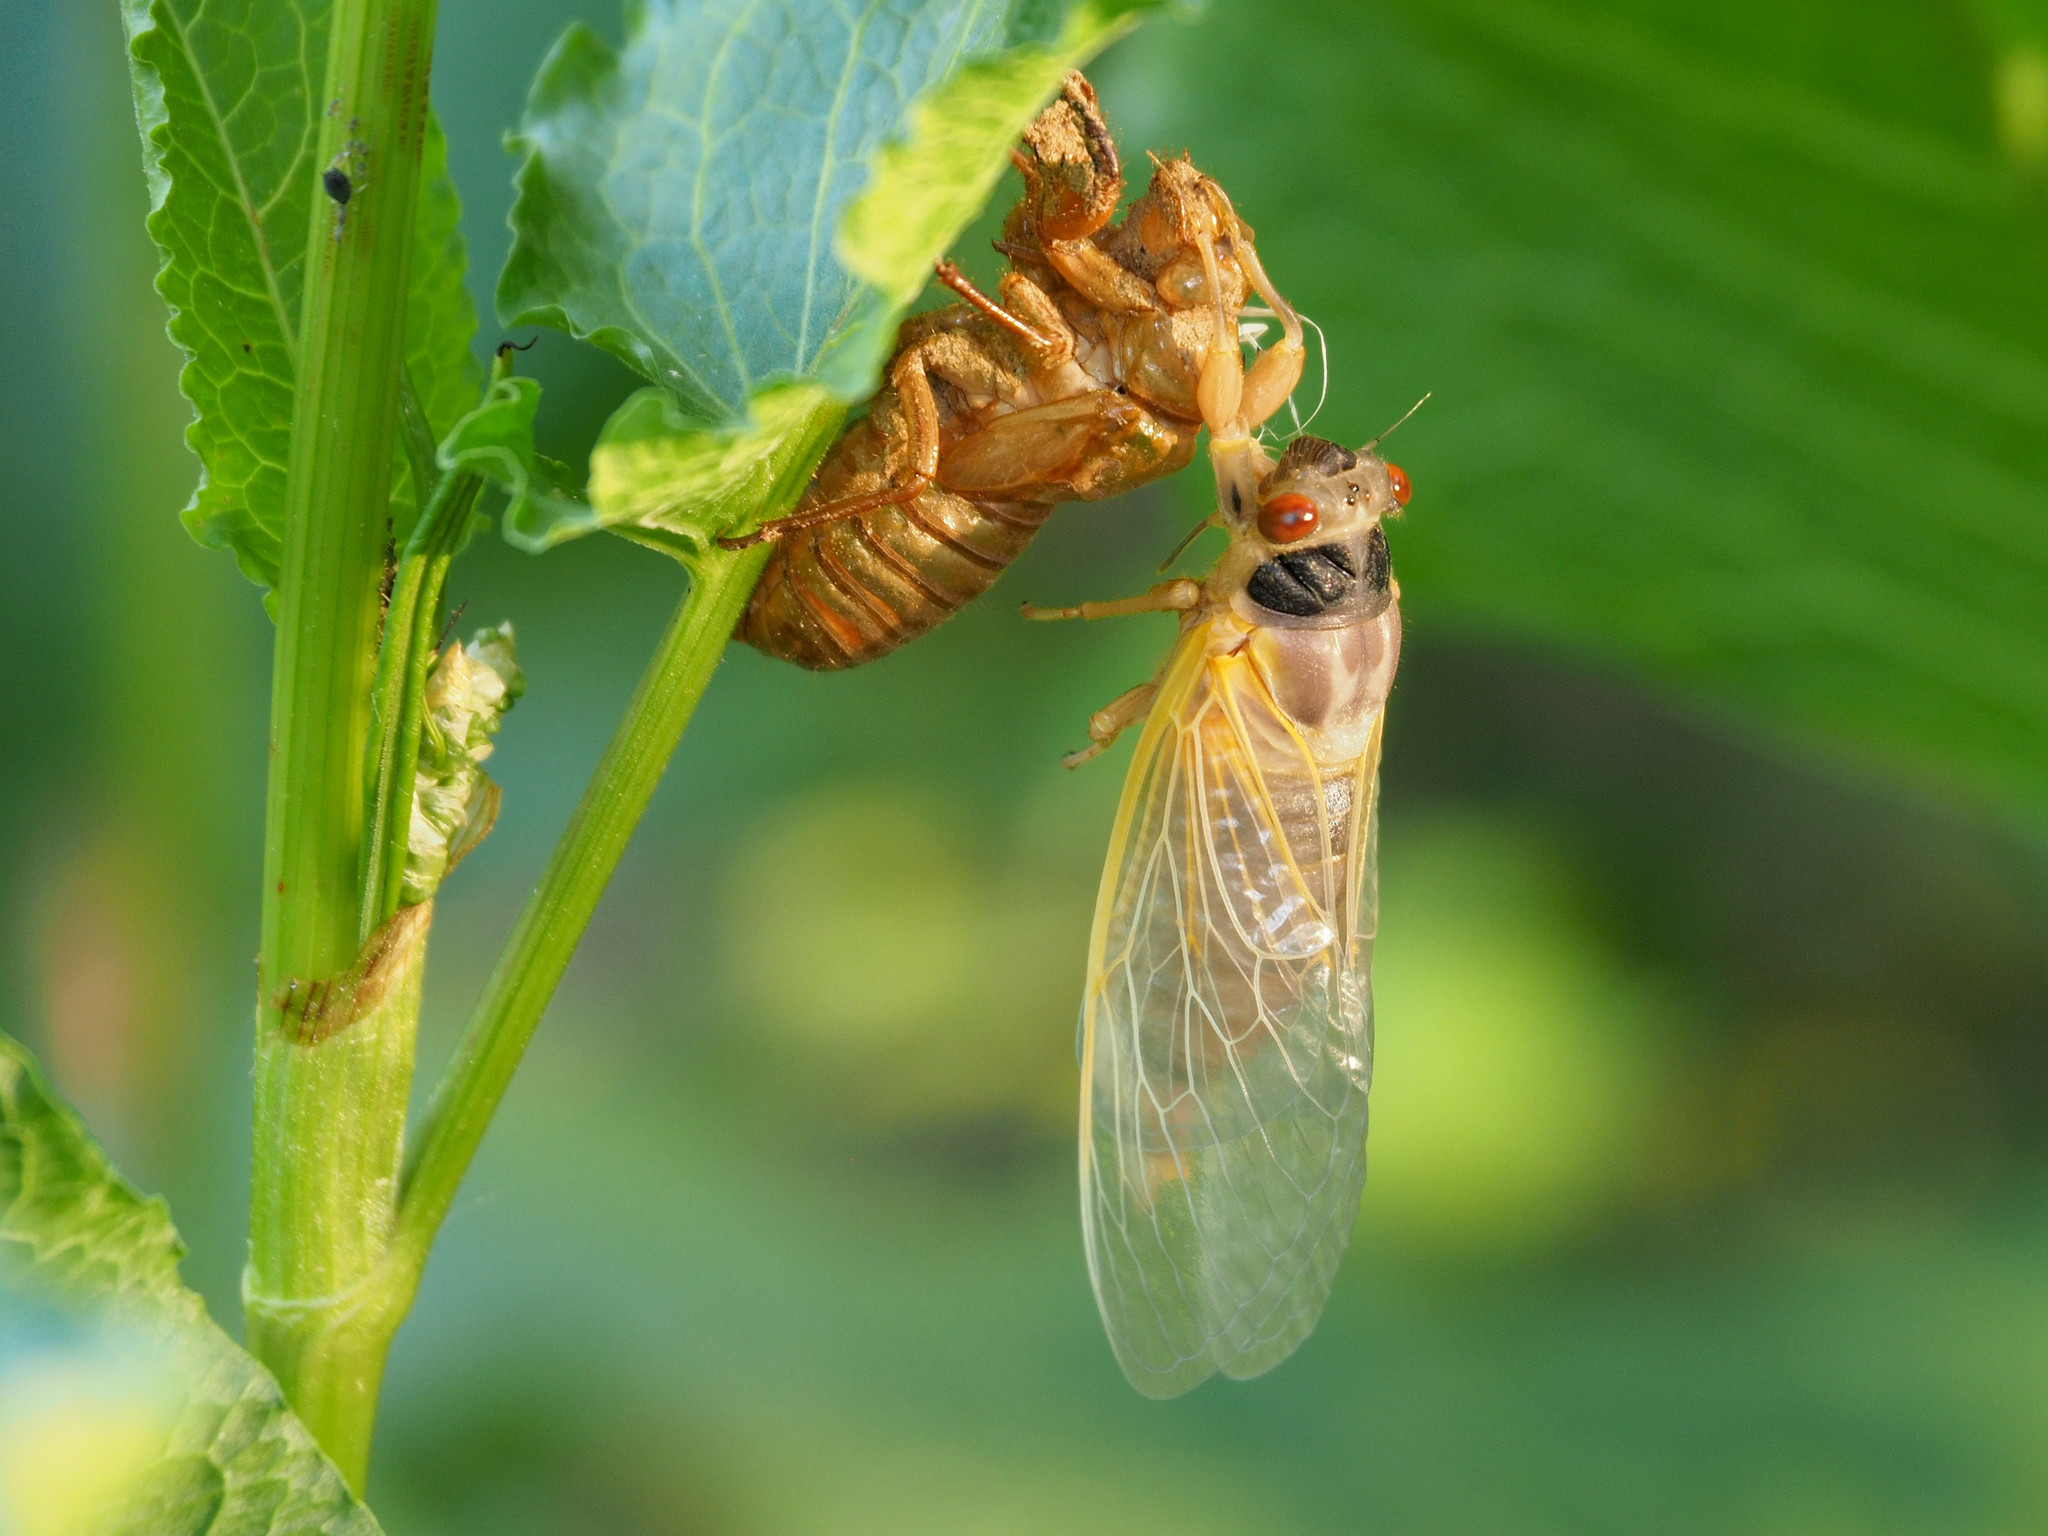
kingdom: Animalia
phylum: Arthropoda
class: Insecta
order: Hemiptera
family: Cicadidae
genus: Magicicada
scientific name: Magicicada
